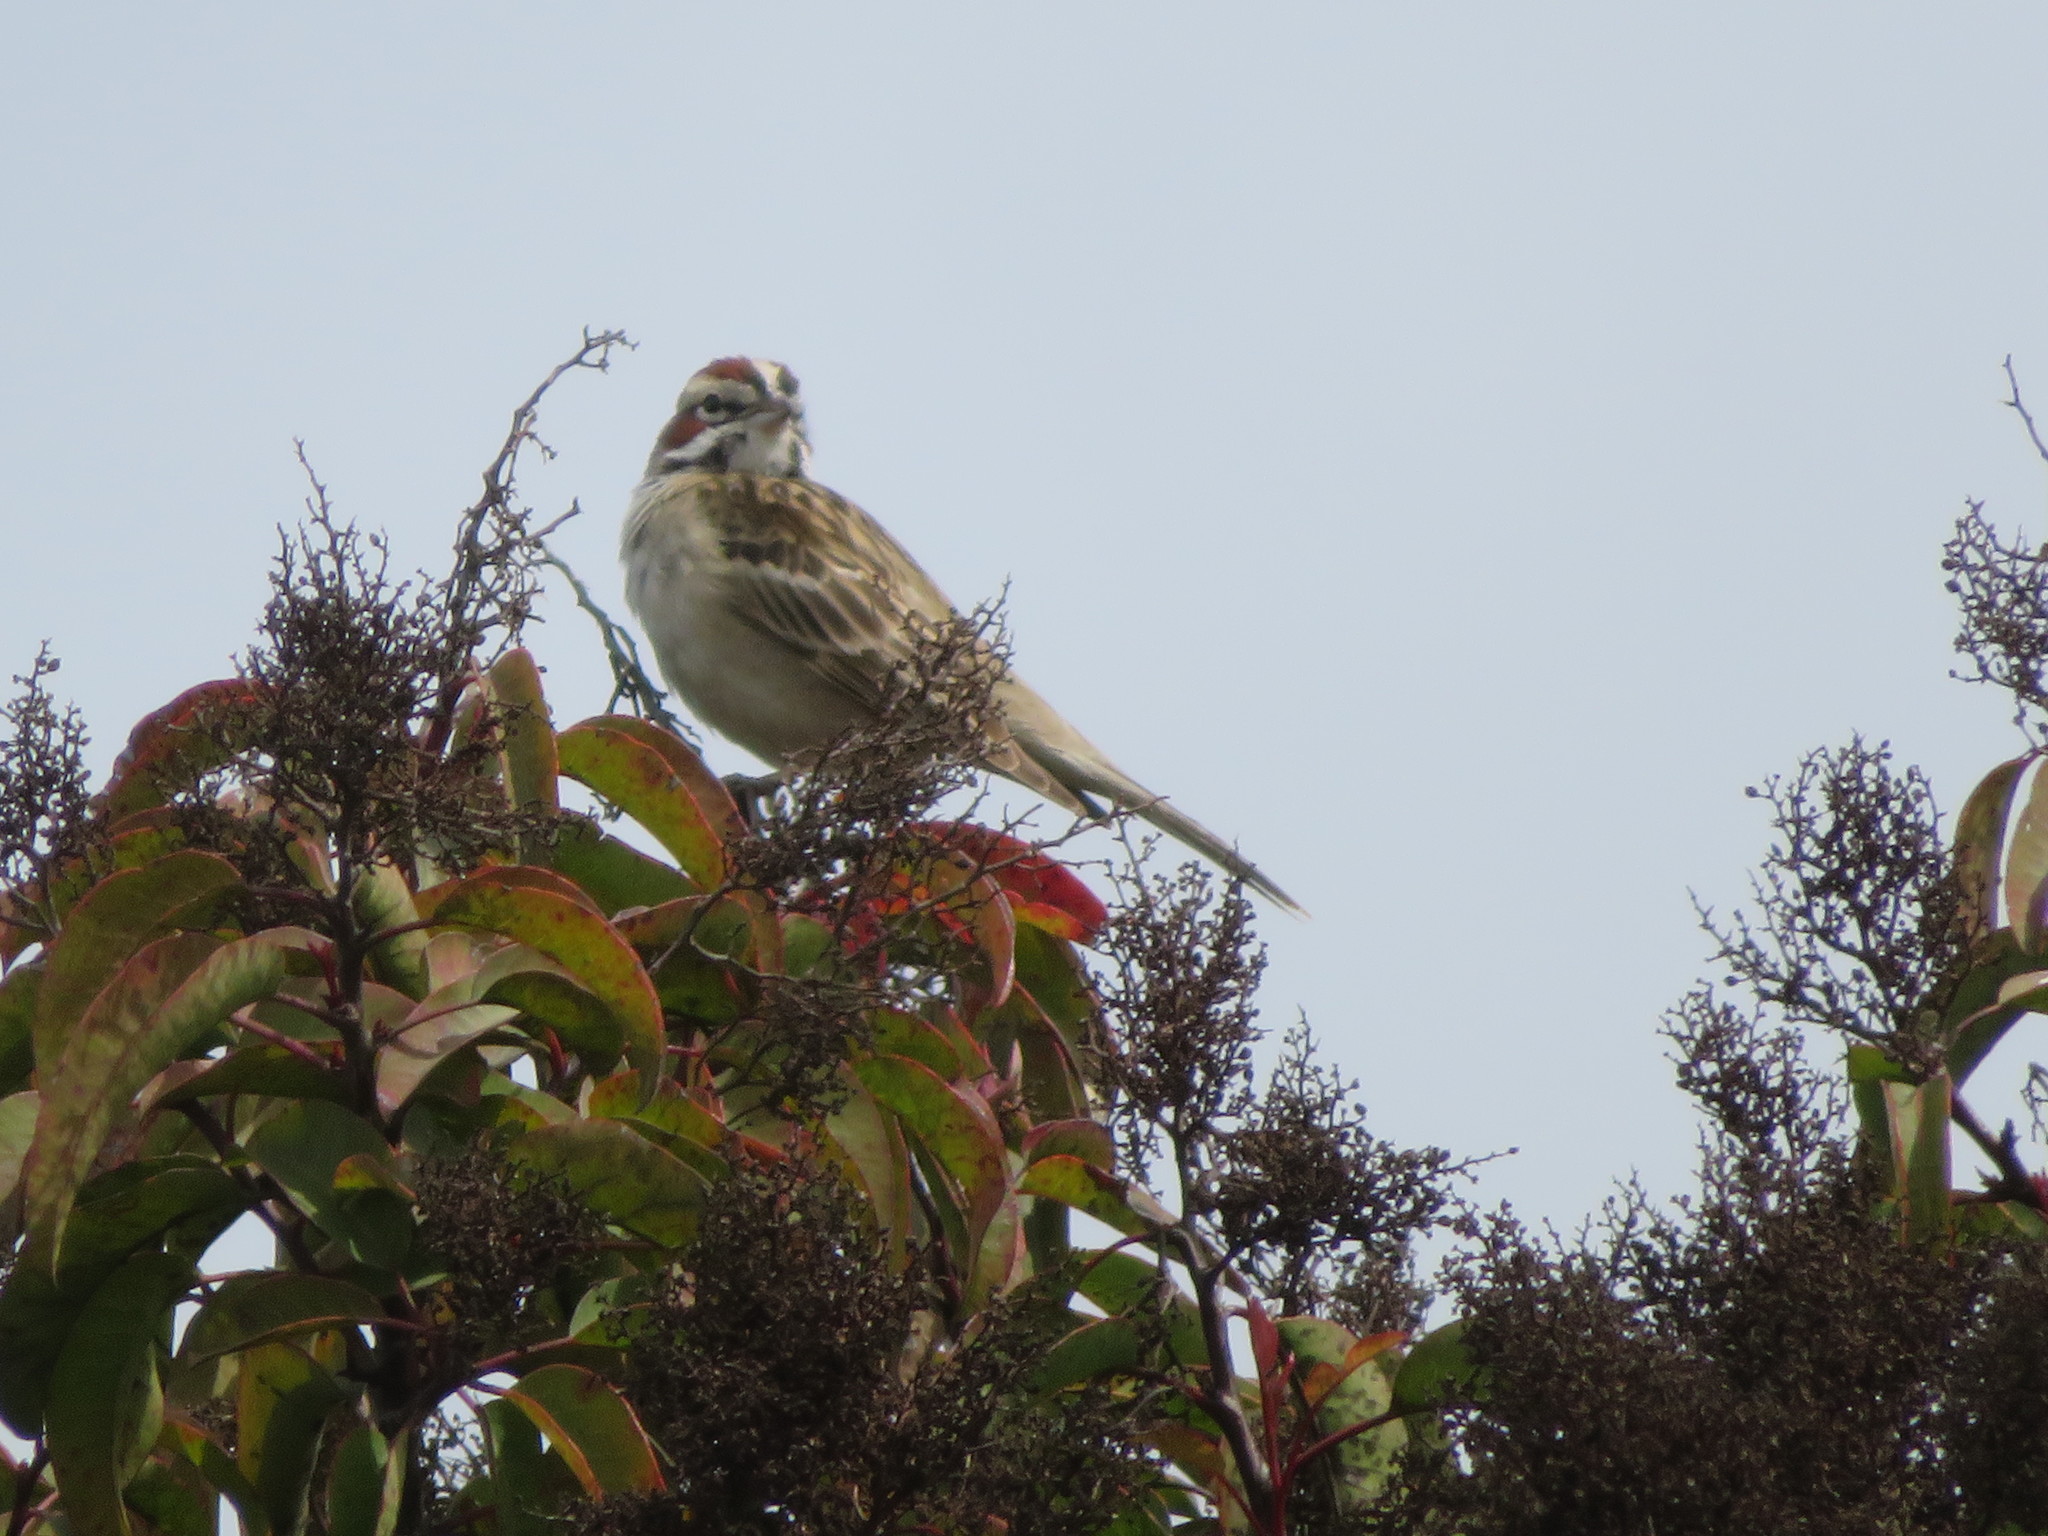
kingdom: Animalia
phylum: Chordata
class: Aves
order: Passeriformes
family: Passerellidae
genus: Chondestes
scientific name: Chondestes grammacus
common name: Lark sparrow
